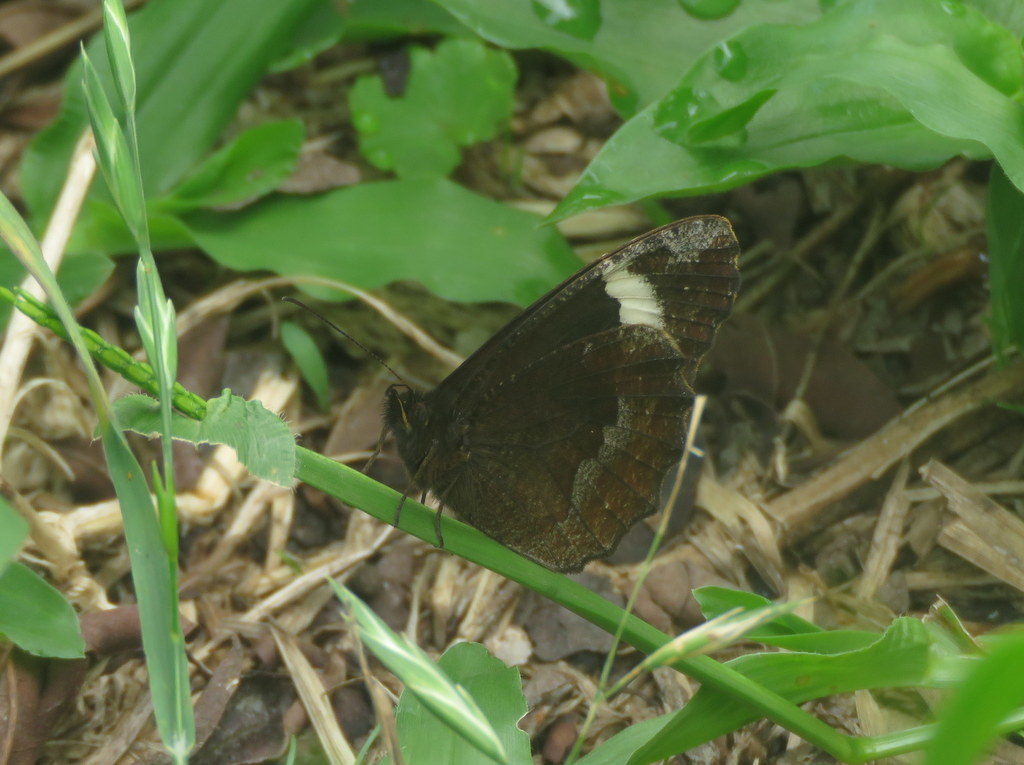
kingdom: Animalia
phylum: Arthropoda
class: Insecta
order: Lepidoptera
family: Nymphalidae
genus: Pedaliodes
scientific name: Pedaliodes porina
